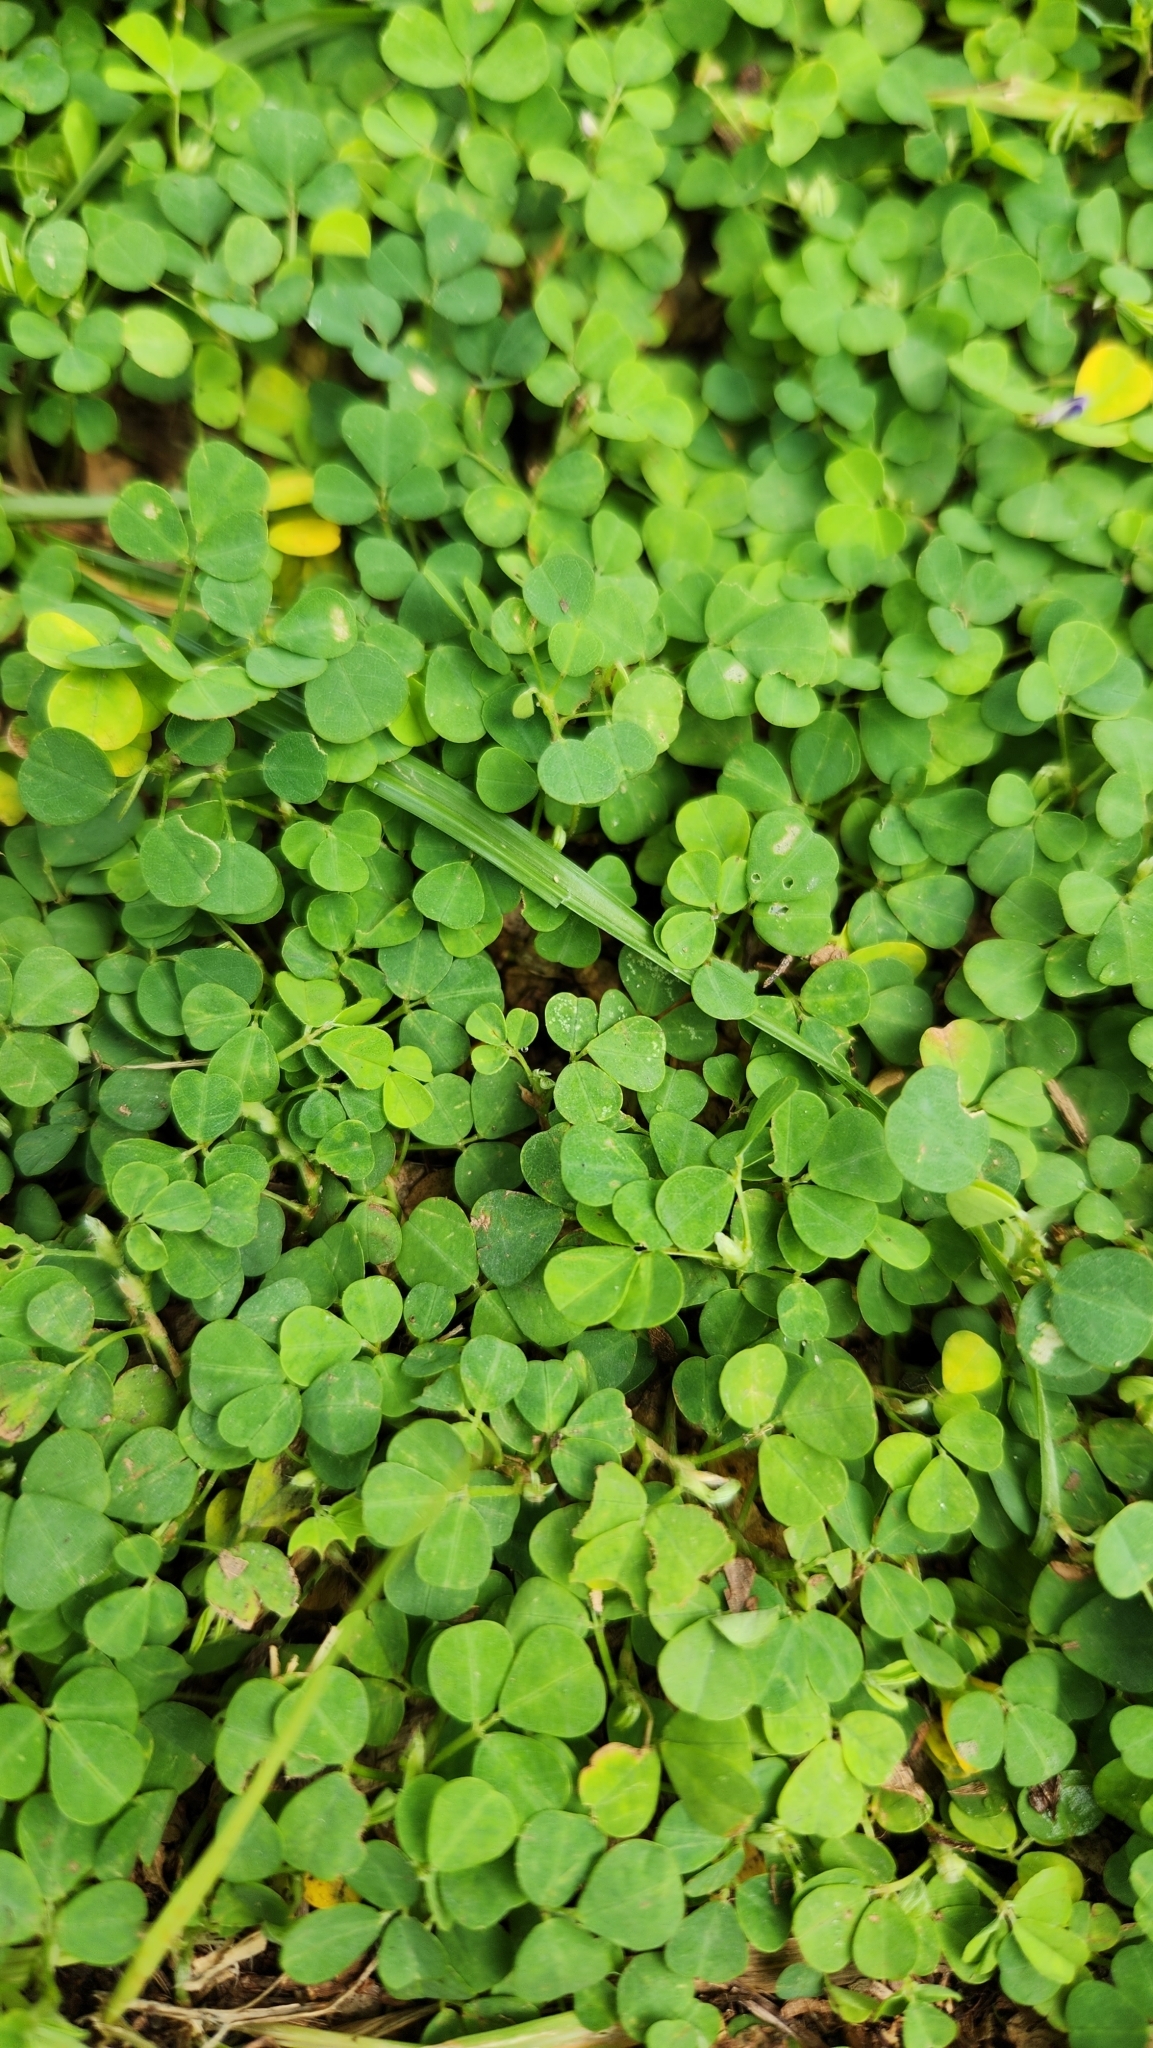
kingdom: Plantae
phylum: Tracheophyta
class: Magnoliopsida
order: Fabales
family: Fabaceae
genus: Grona
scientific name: Grona triflora
